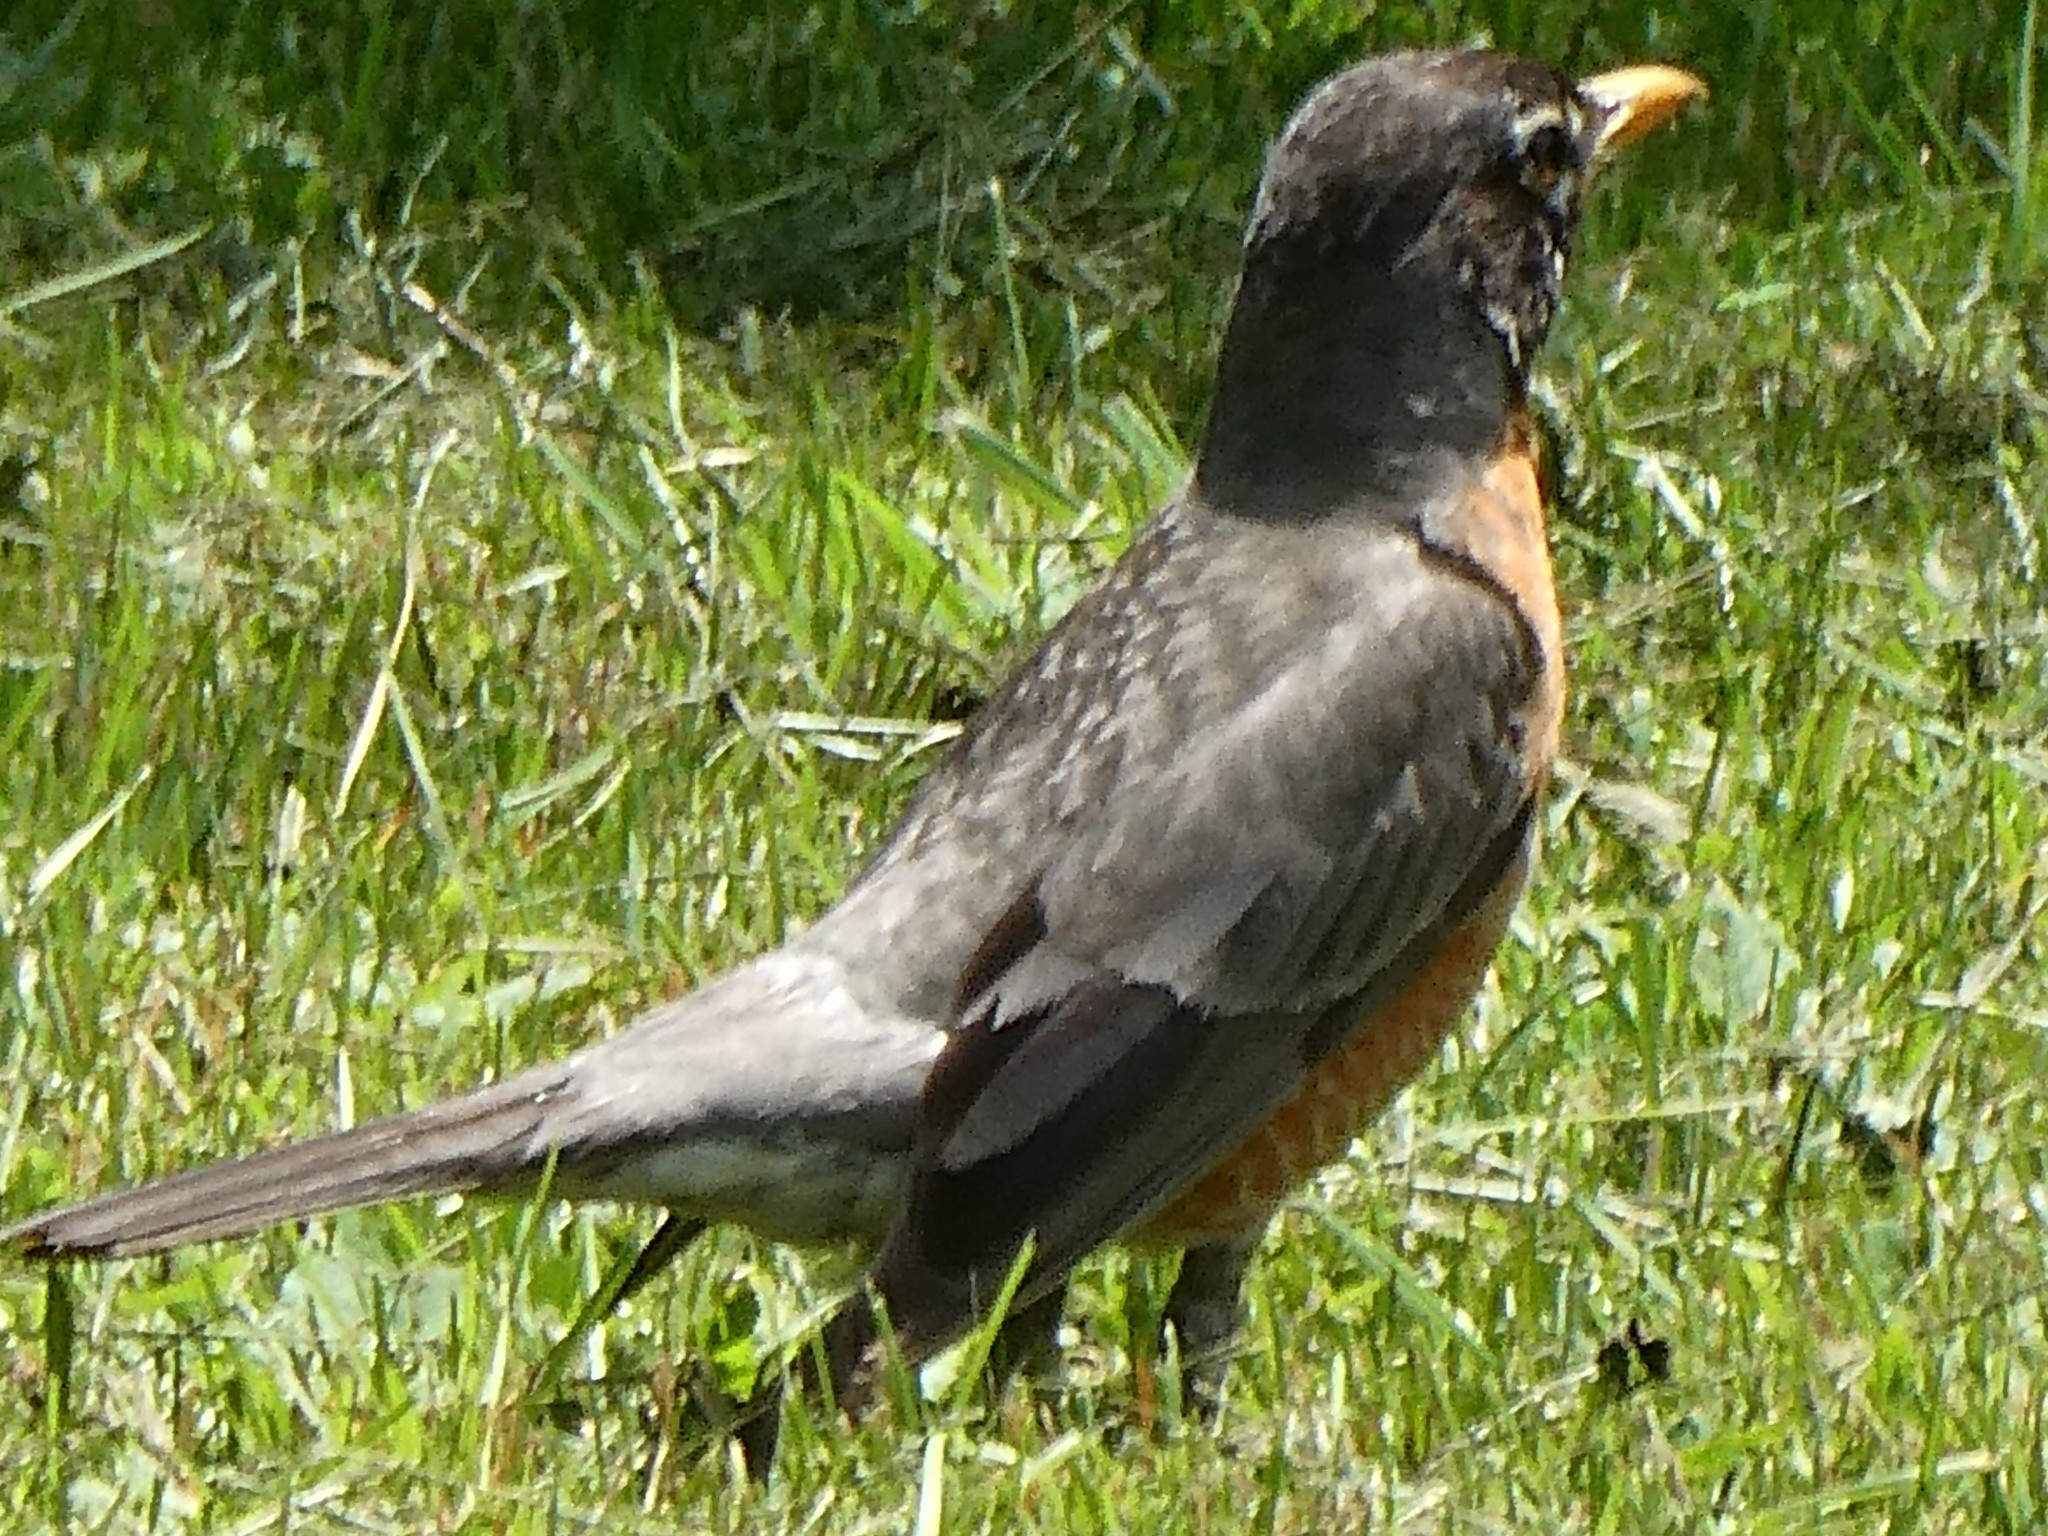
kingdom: Animalia
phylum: Chordata
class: Aves
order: Passeriformes
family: Turdidae
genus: Turdus
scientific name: Turdus migratorius
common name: American robin
